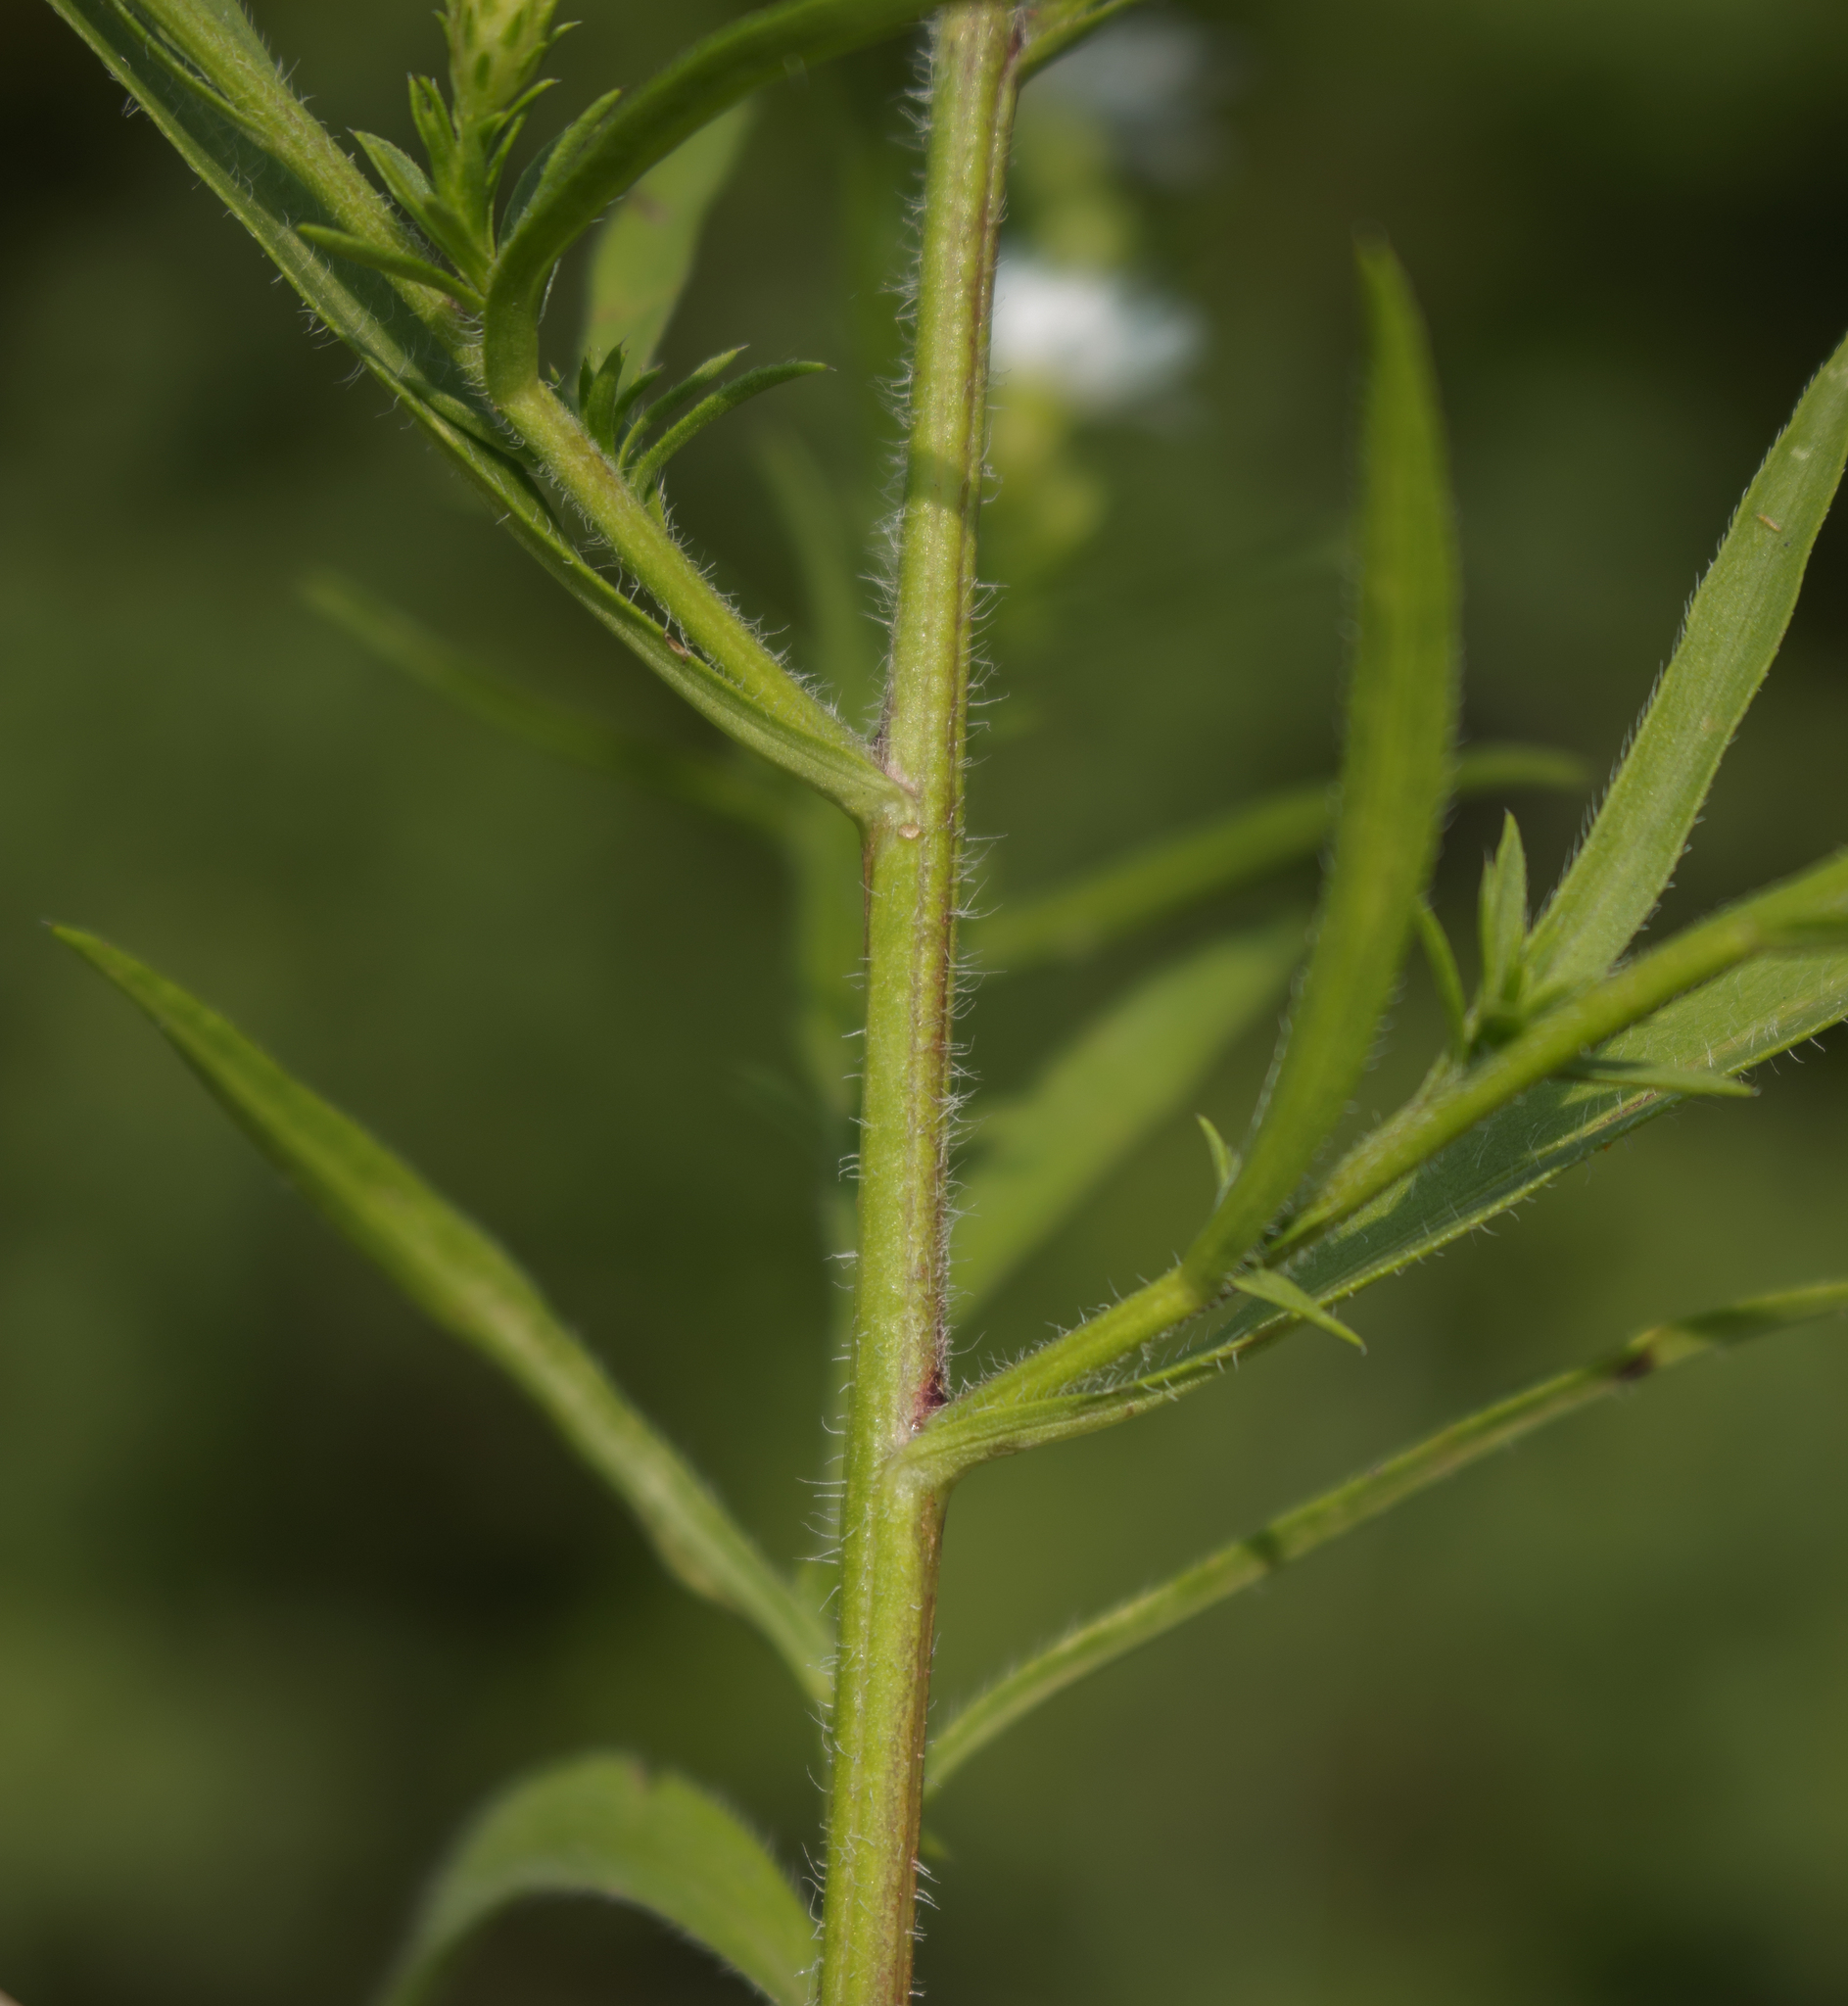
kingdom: Plantae
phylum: Tracheophyta
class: Magnoliopsida
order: Asterales
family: Asteraceae
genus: Symphyotrichum
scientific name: Symphyotrichum pilosum
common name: Awl aster
